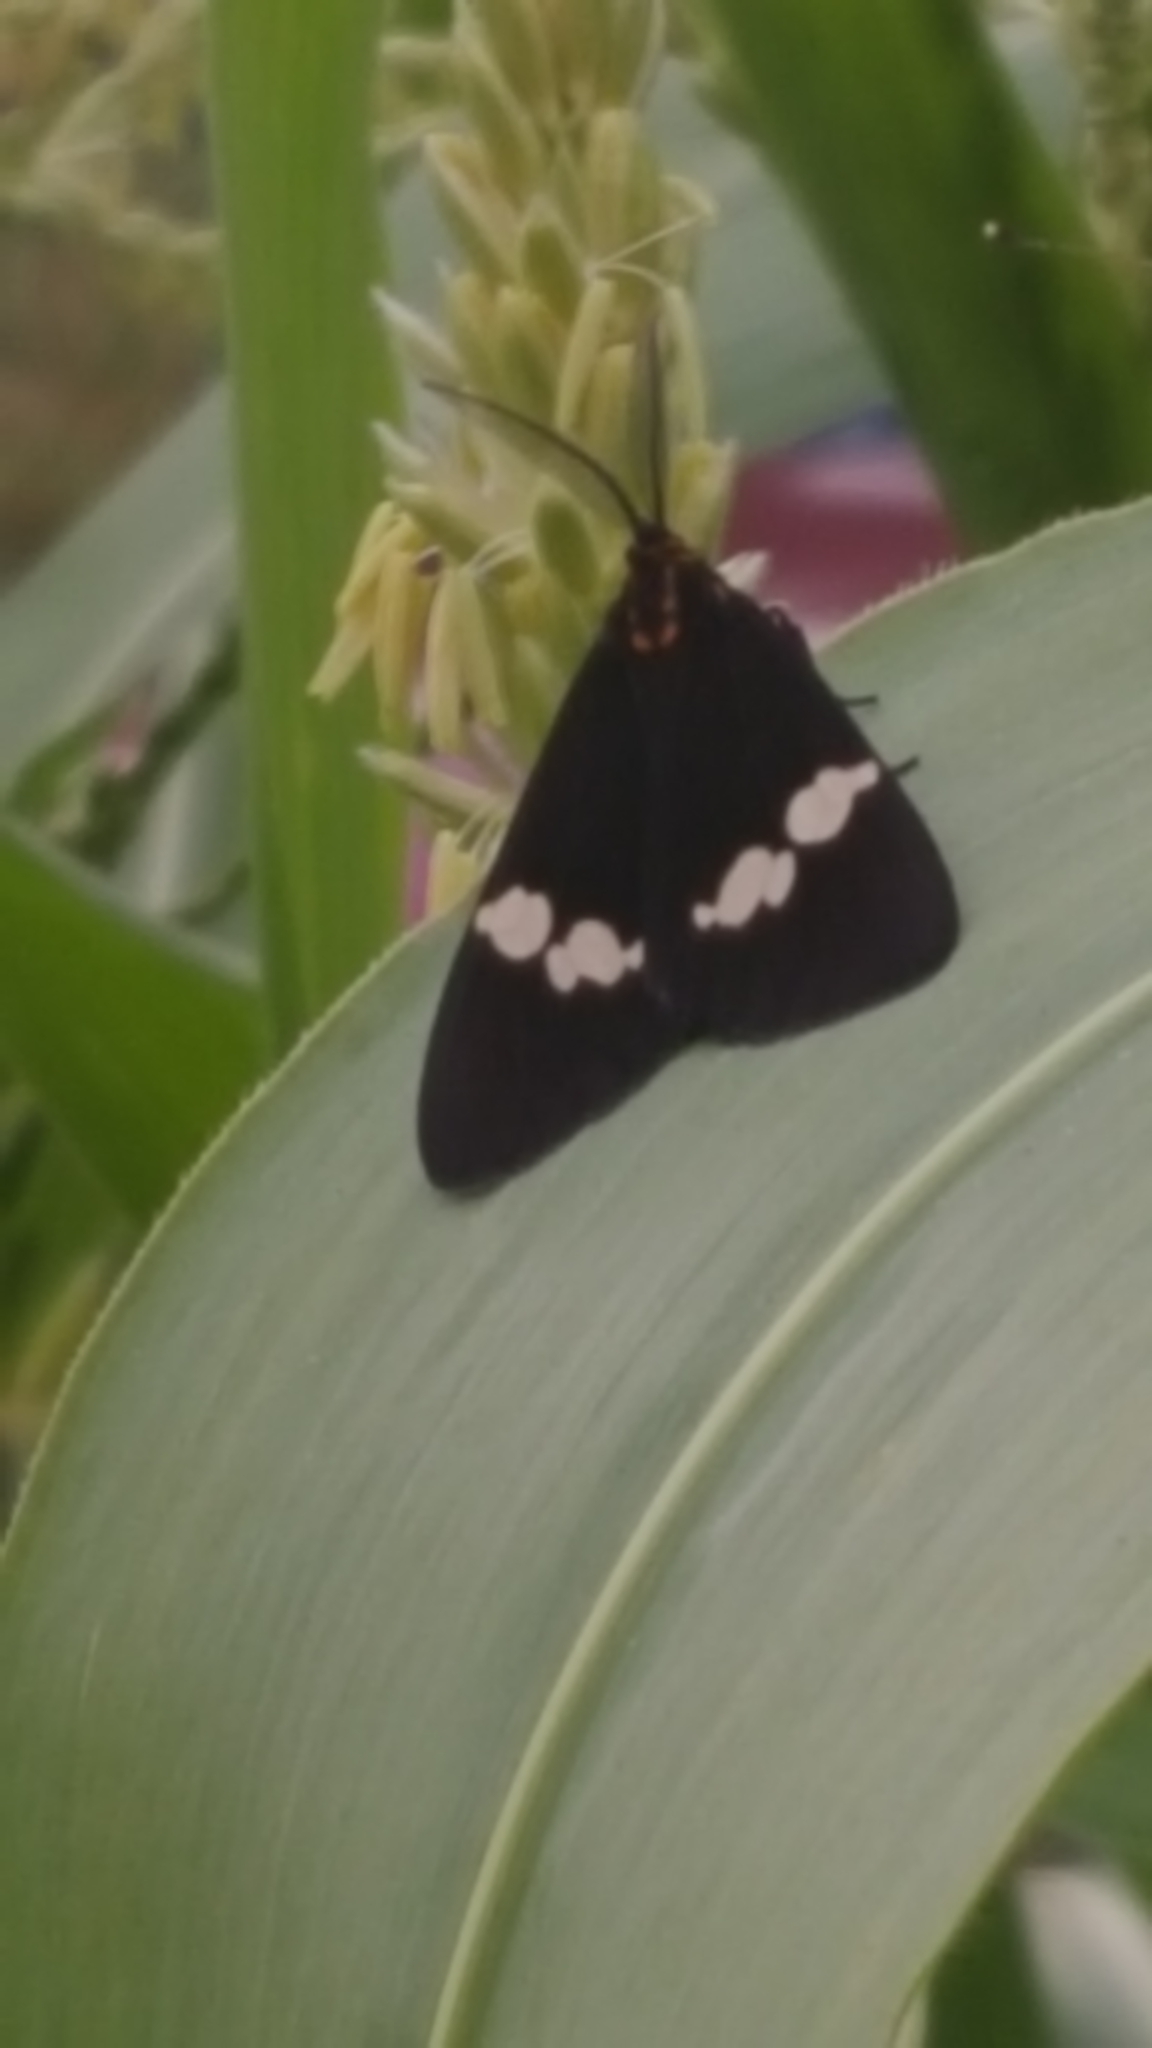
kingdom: Animalia
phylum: Arthropoda
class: Insecta
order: Lepidoptera
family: Erebidae
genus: Nyctemera
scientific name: Nyctemera annulatum
